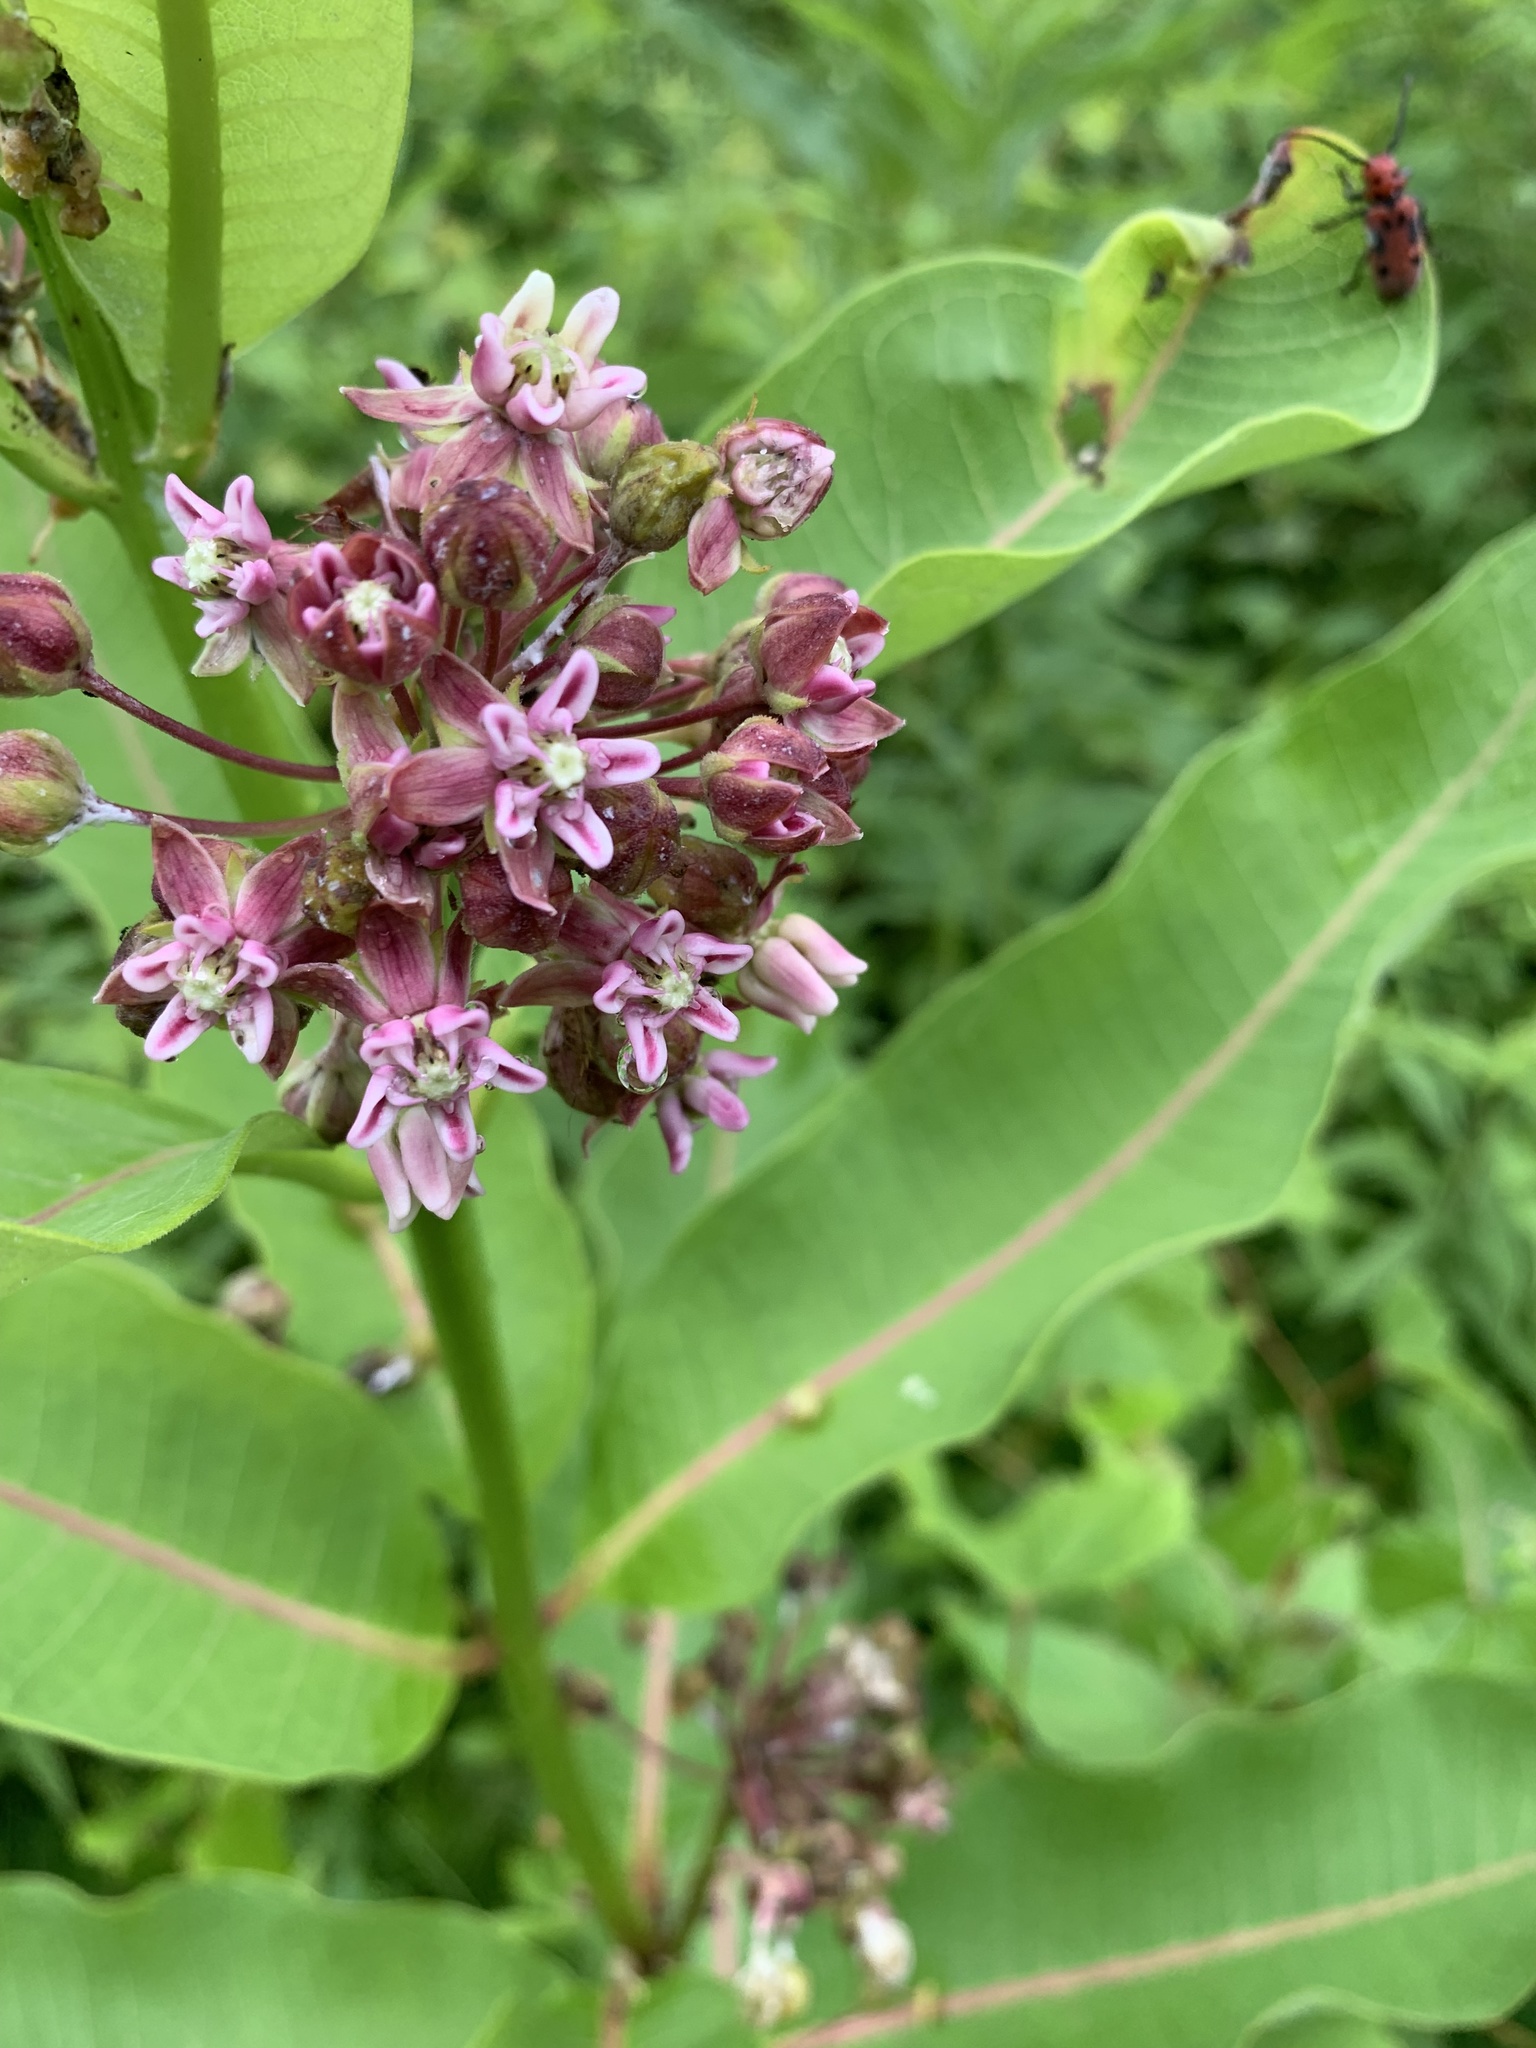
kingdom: Animalia
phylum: Arthropoda
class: Insecta
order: Coleoptera
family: Cerambycidae
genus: Tetraopes
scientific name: Tetraopes tetrophthalmus
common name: Red milkweed beetle
